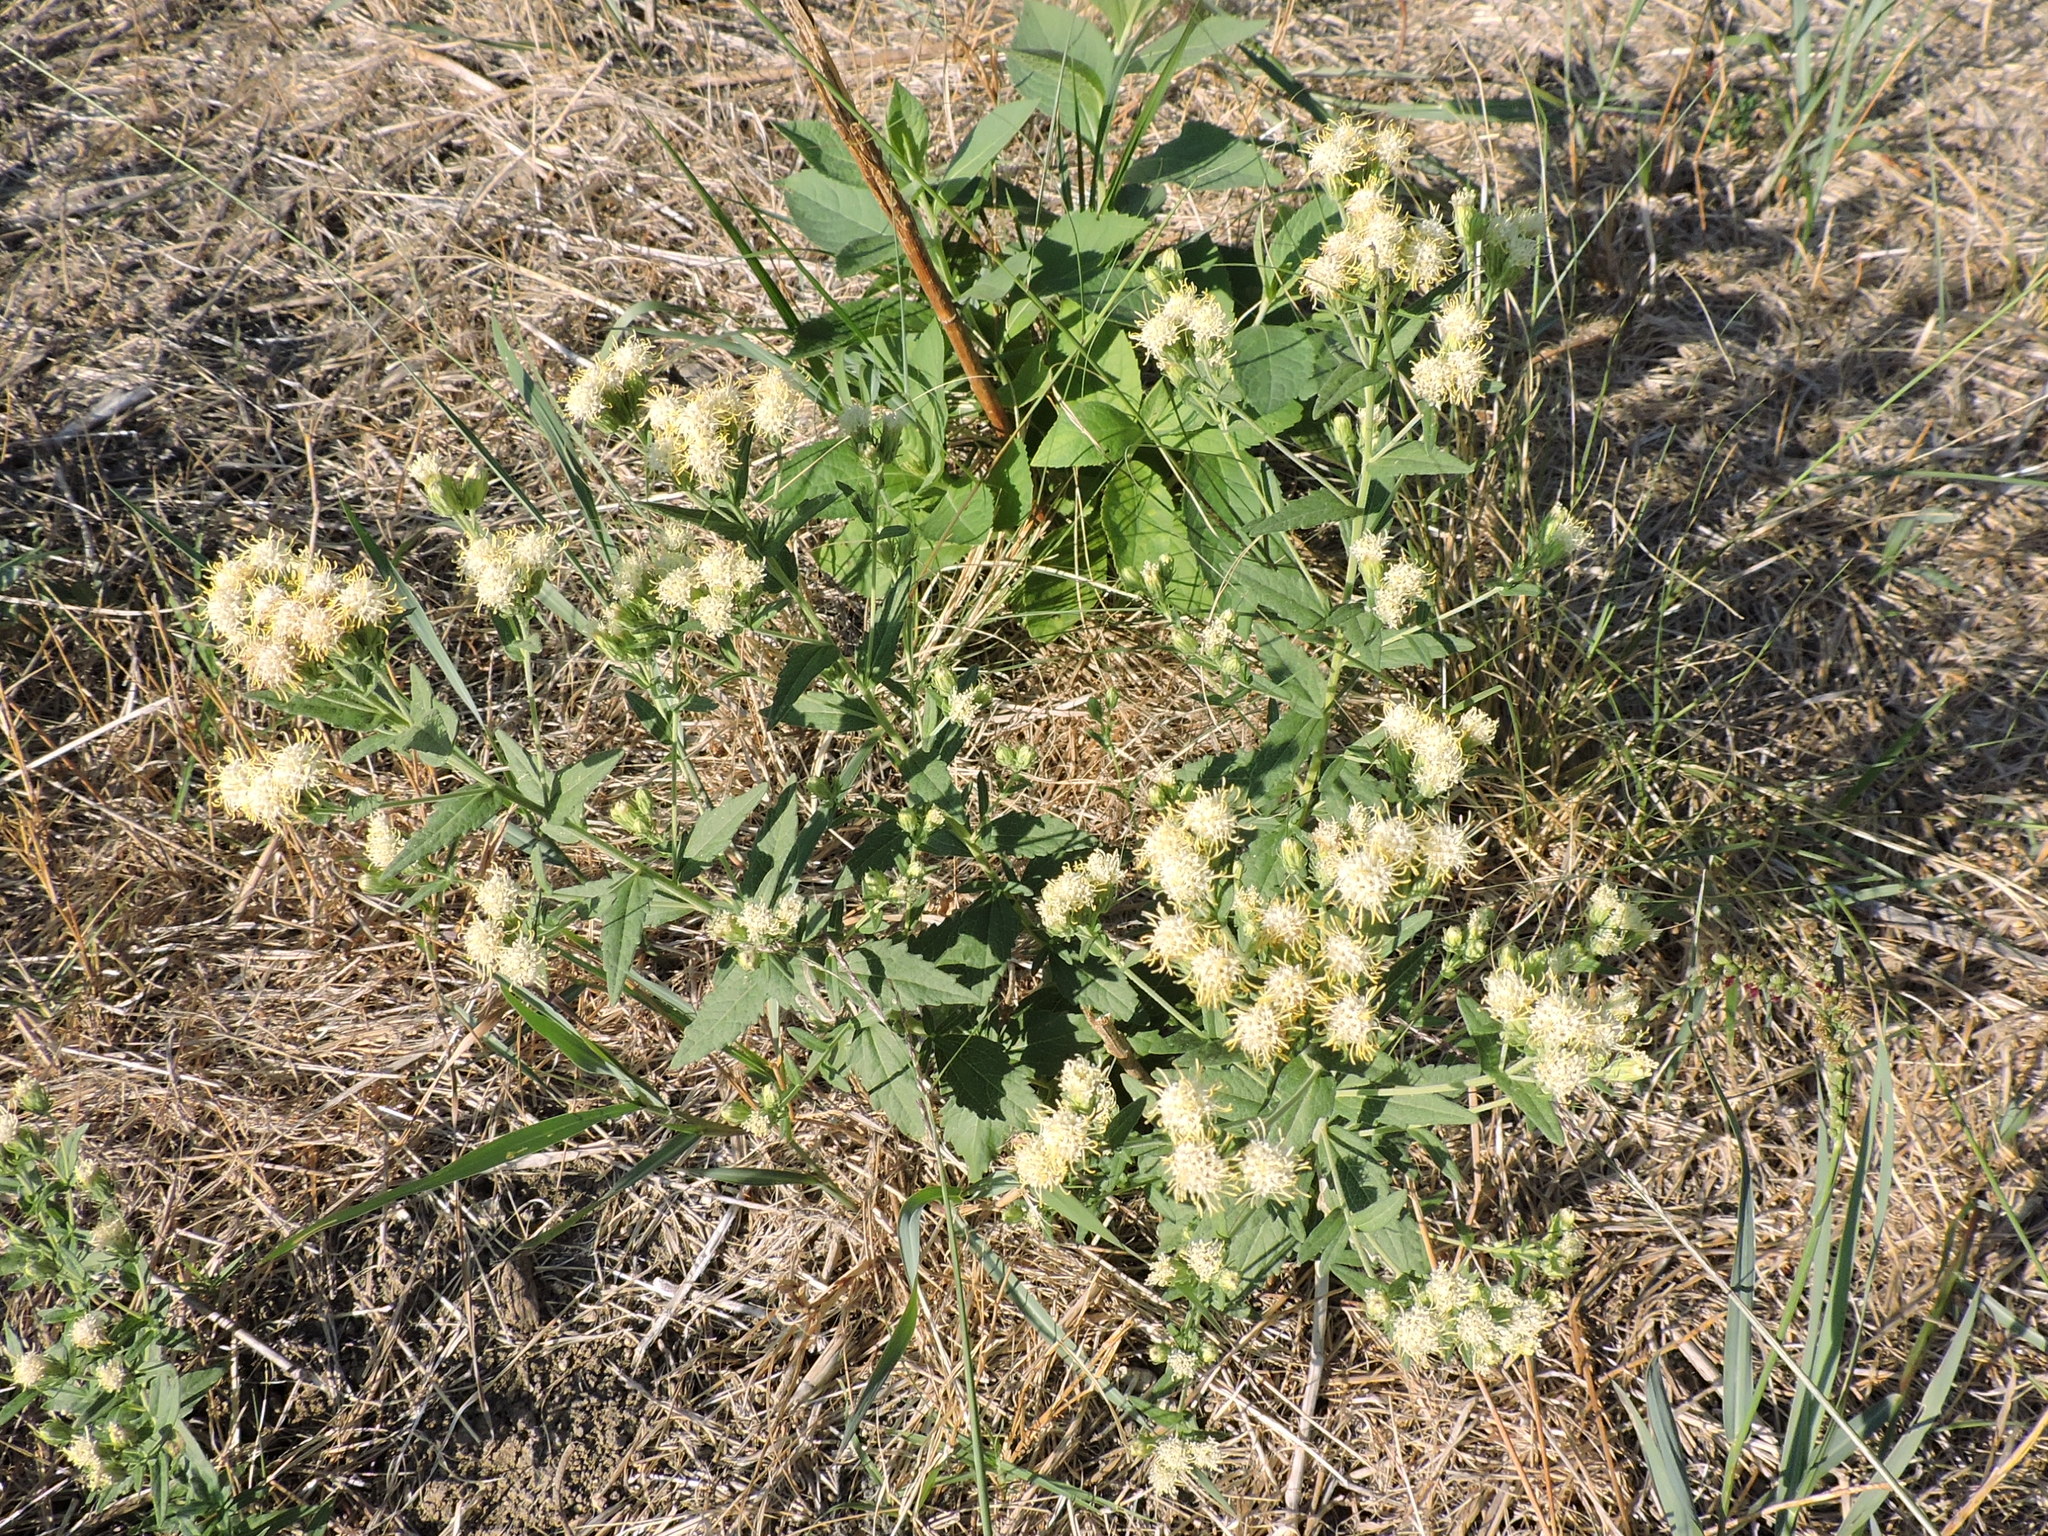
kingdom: Plantae
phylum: Tracheophyta
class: Magnoliopsida
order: Asterales
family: Asteraceae
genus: Brickellia
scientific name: Brickellia eupatorioides
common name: False boneset
